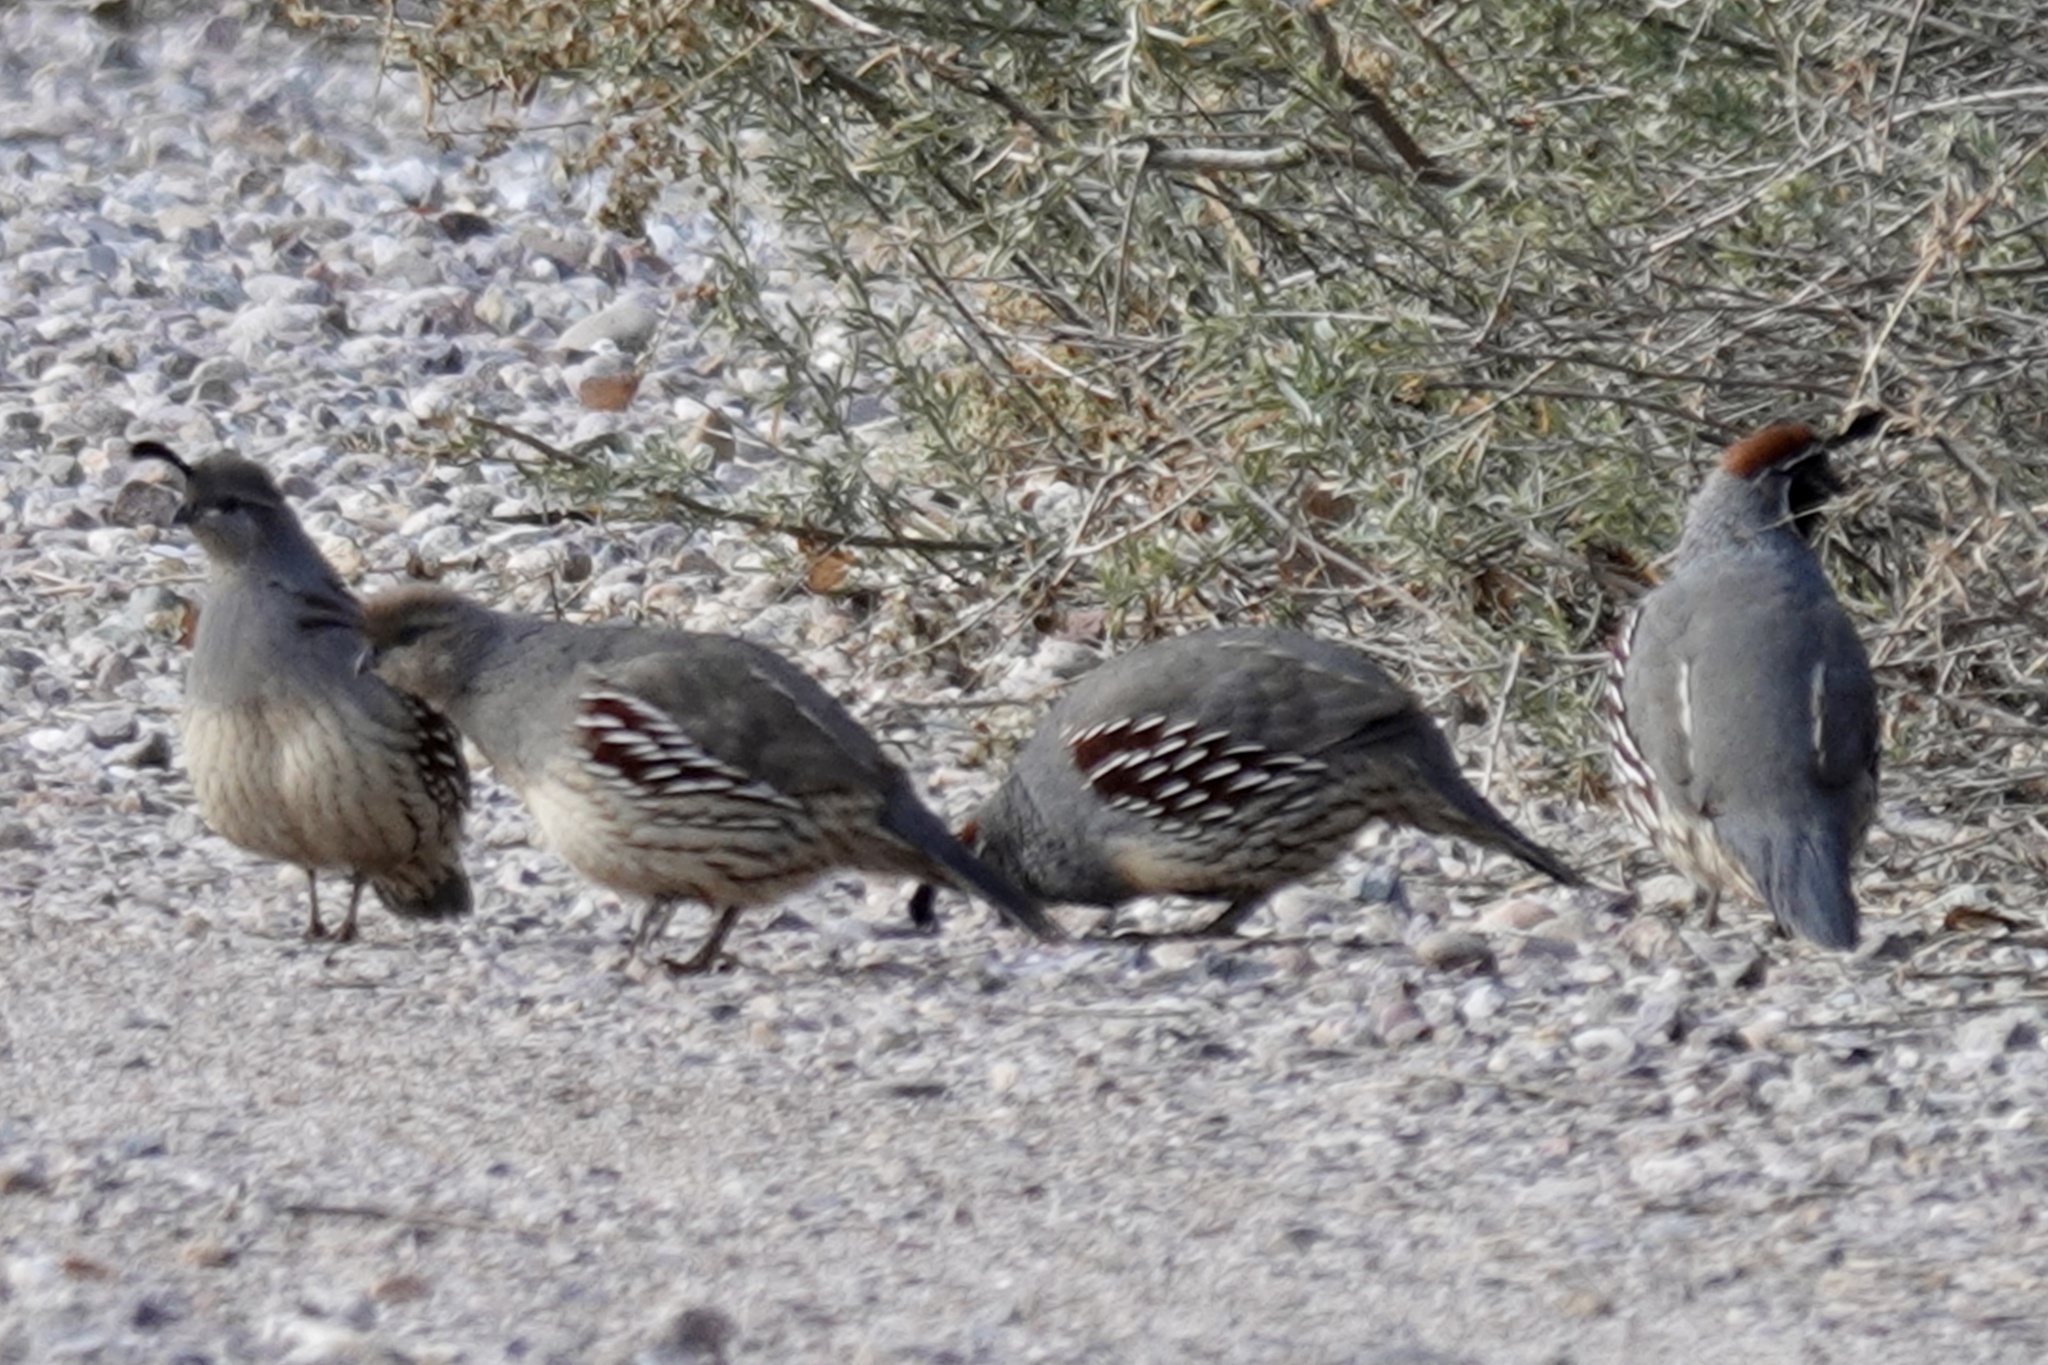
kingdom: Animalia
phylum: Chordata
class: Aves
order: Galliformes
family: Odontophoridae
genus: Callipepla
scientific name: Callipepla gambelii
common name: Gambel's quail
